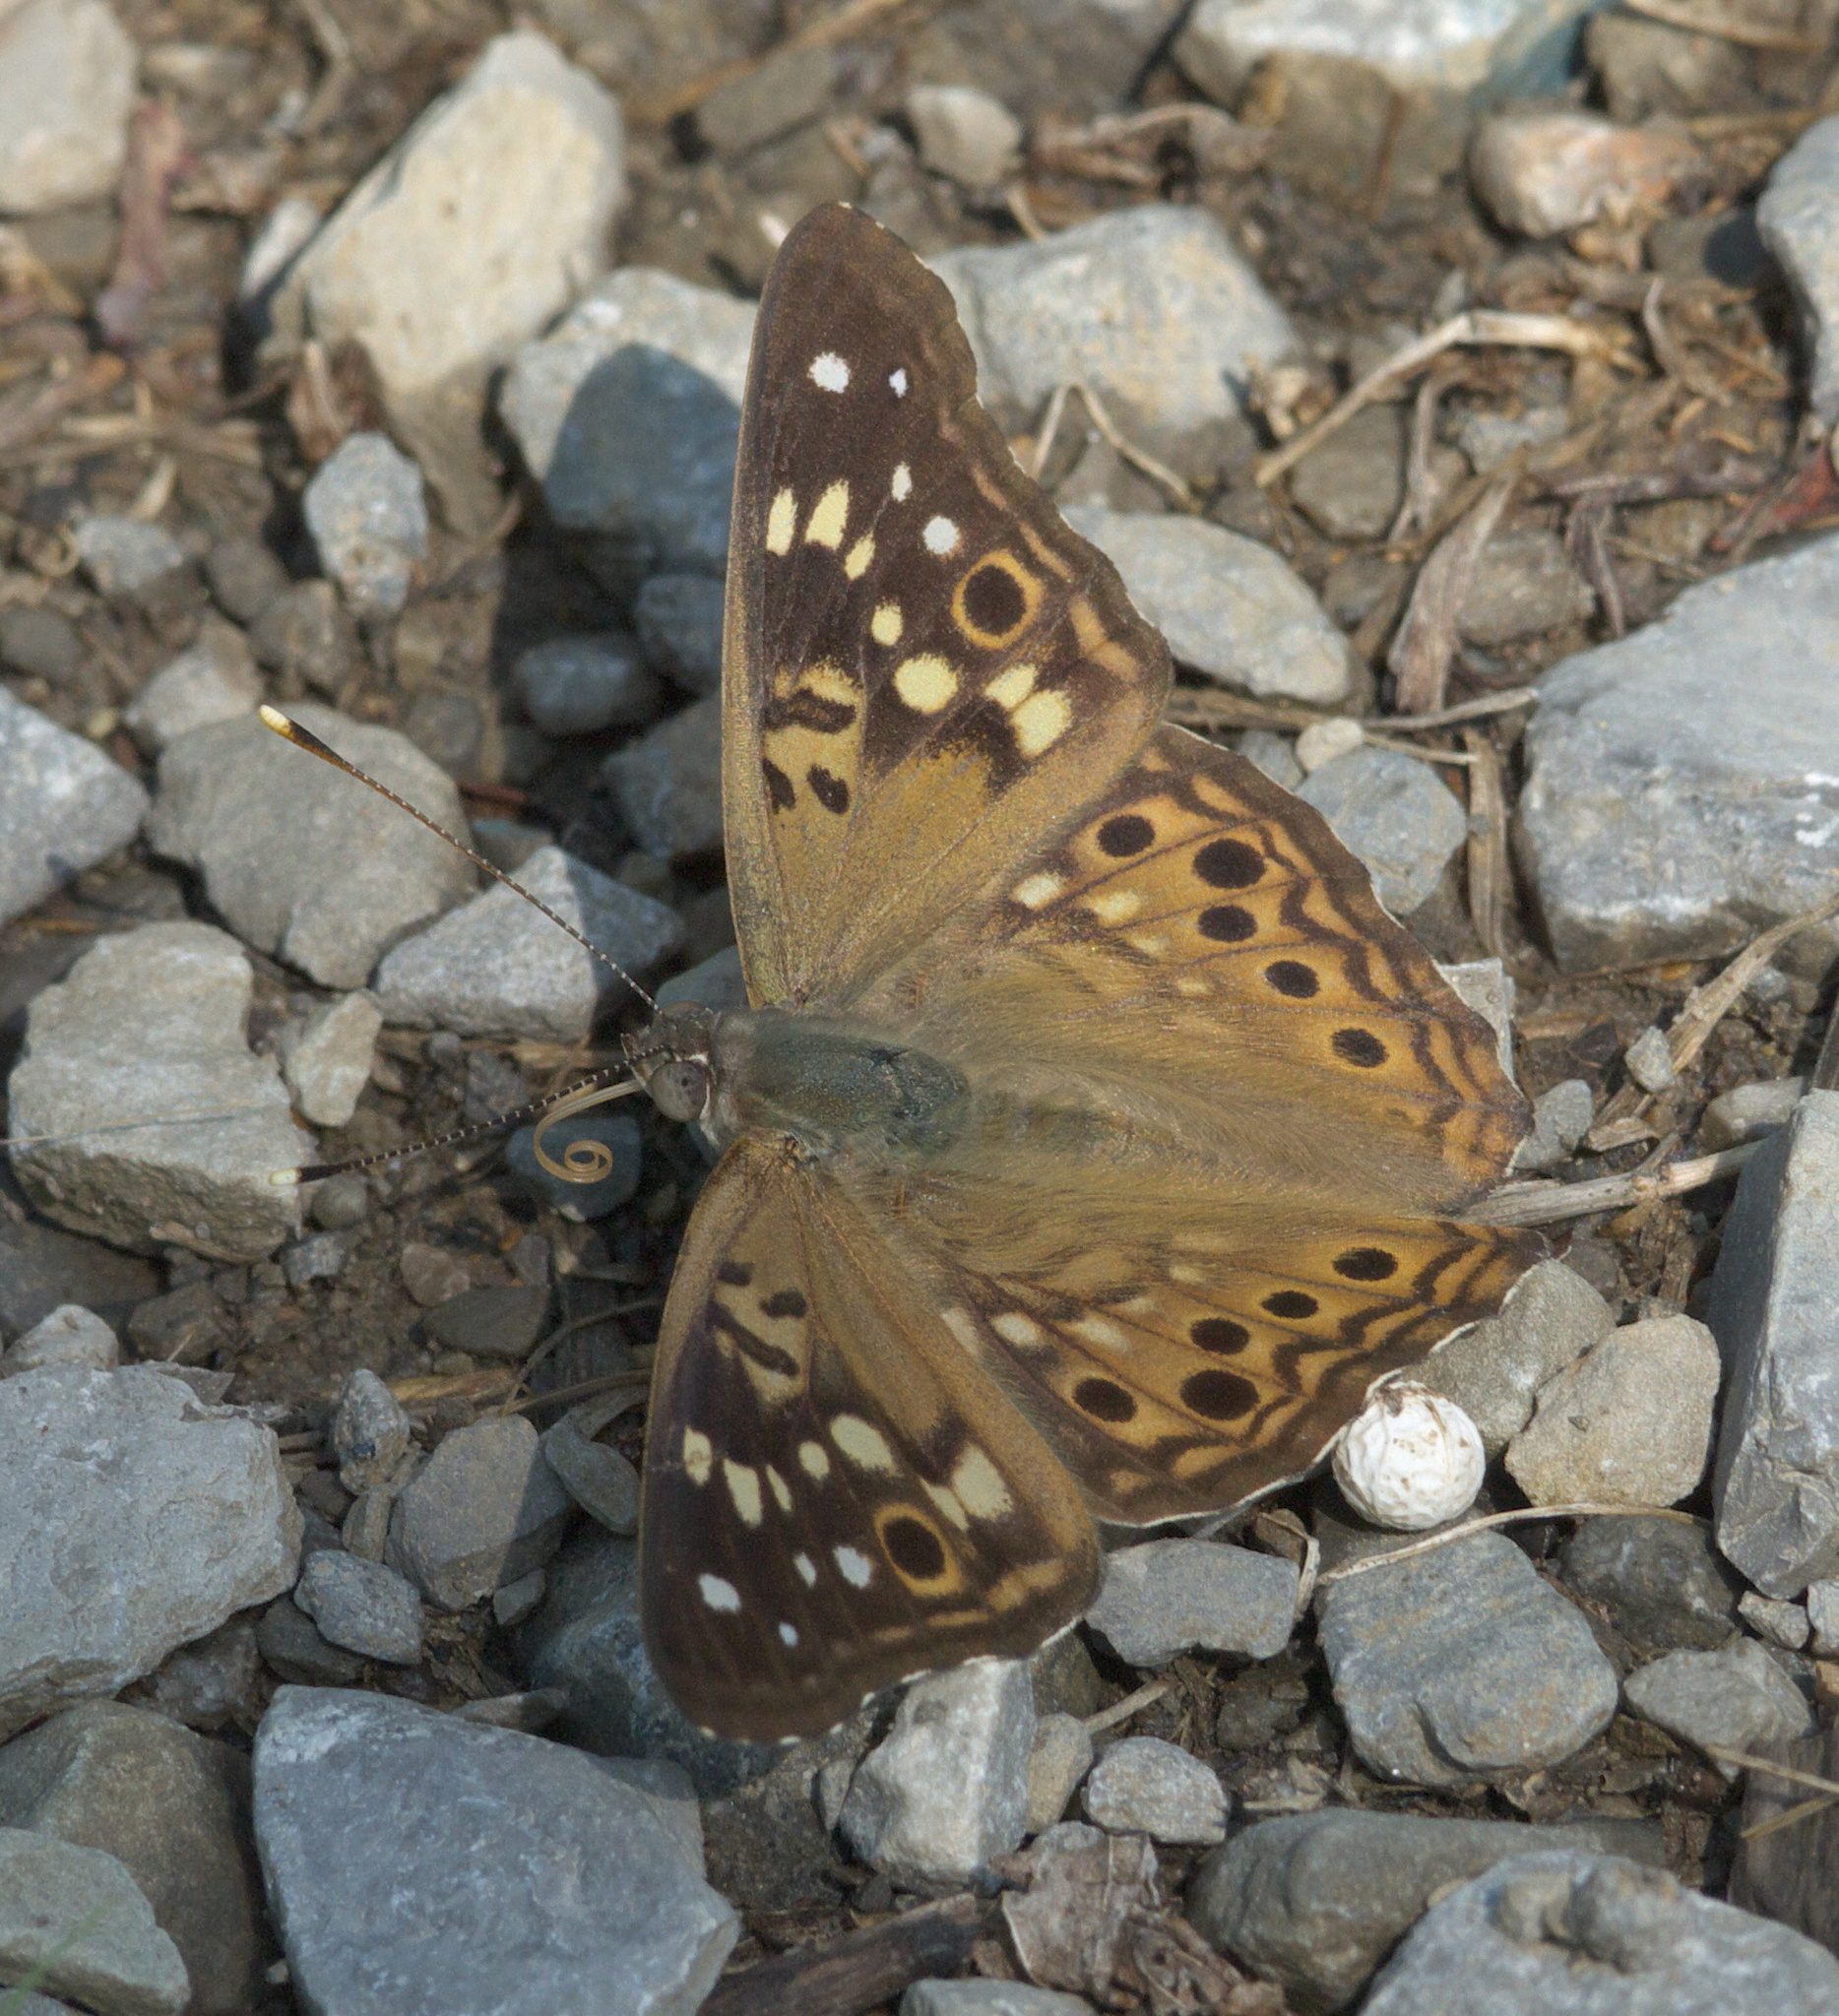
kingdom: Animalia
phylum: Arthropoda
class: Insecta
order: Lepidoptera
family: Nymphalidae
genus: Asterocampa
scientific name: Asterocampa celtis
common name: Hackberry emperor
